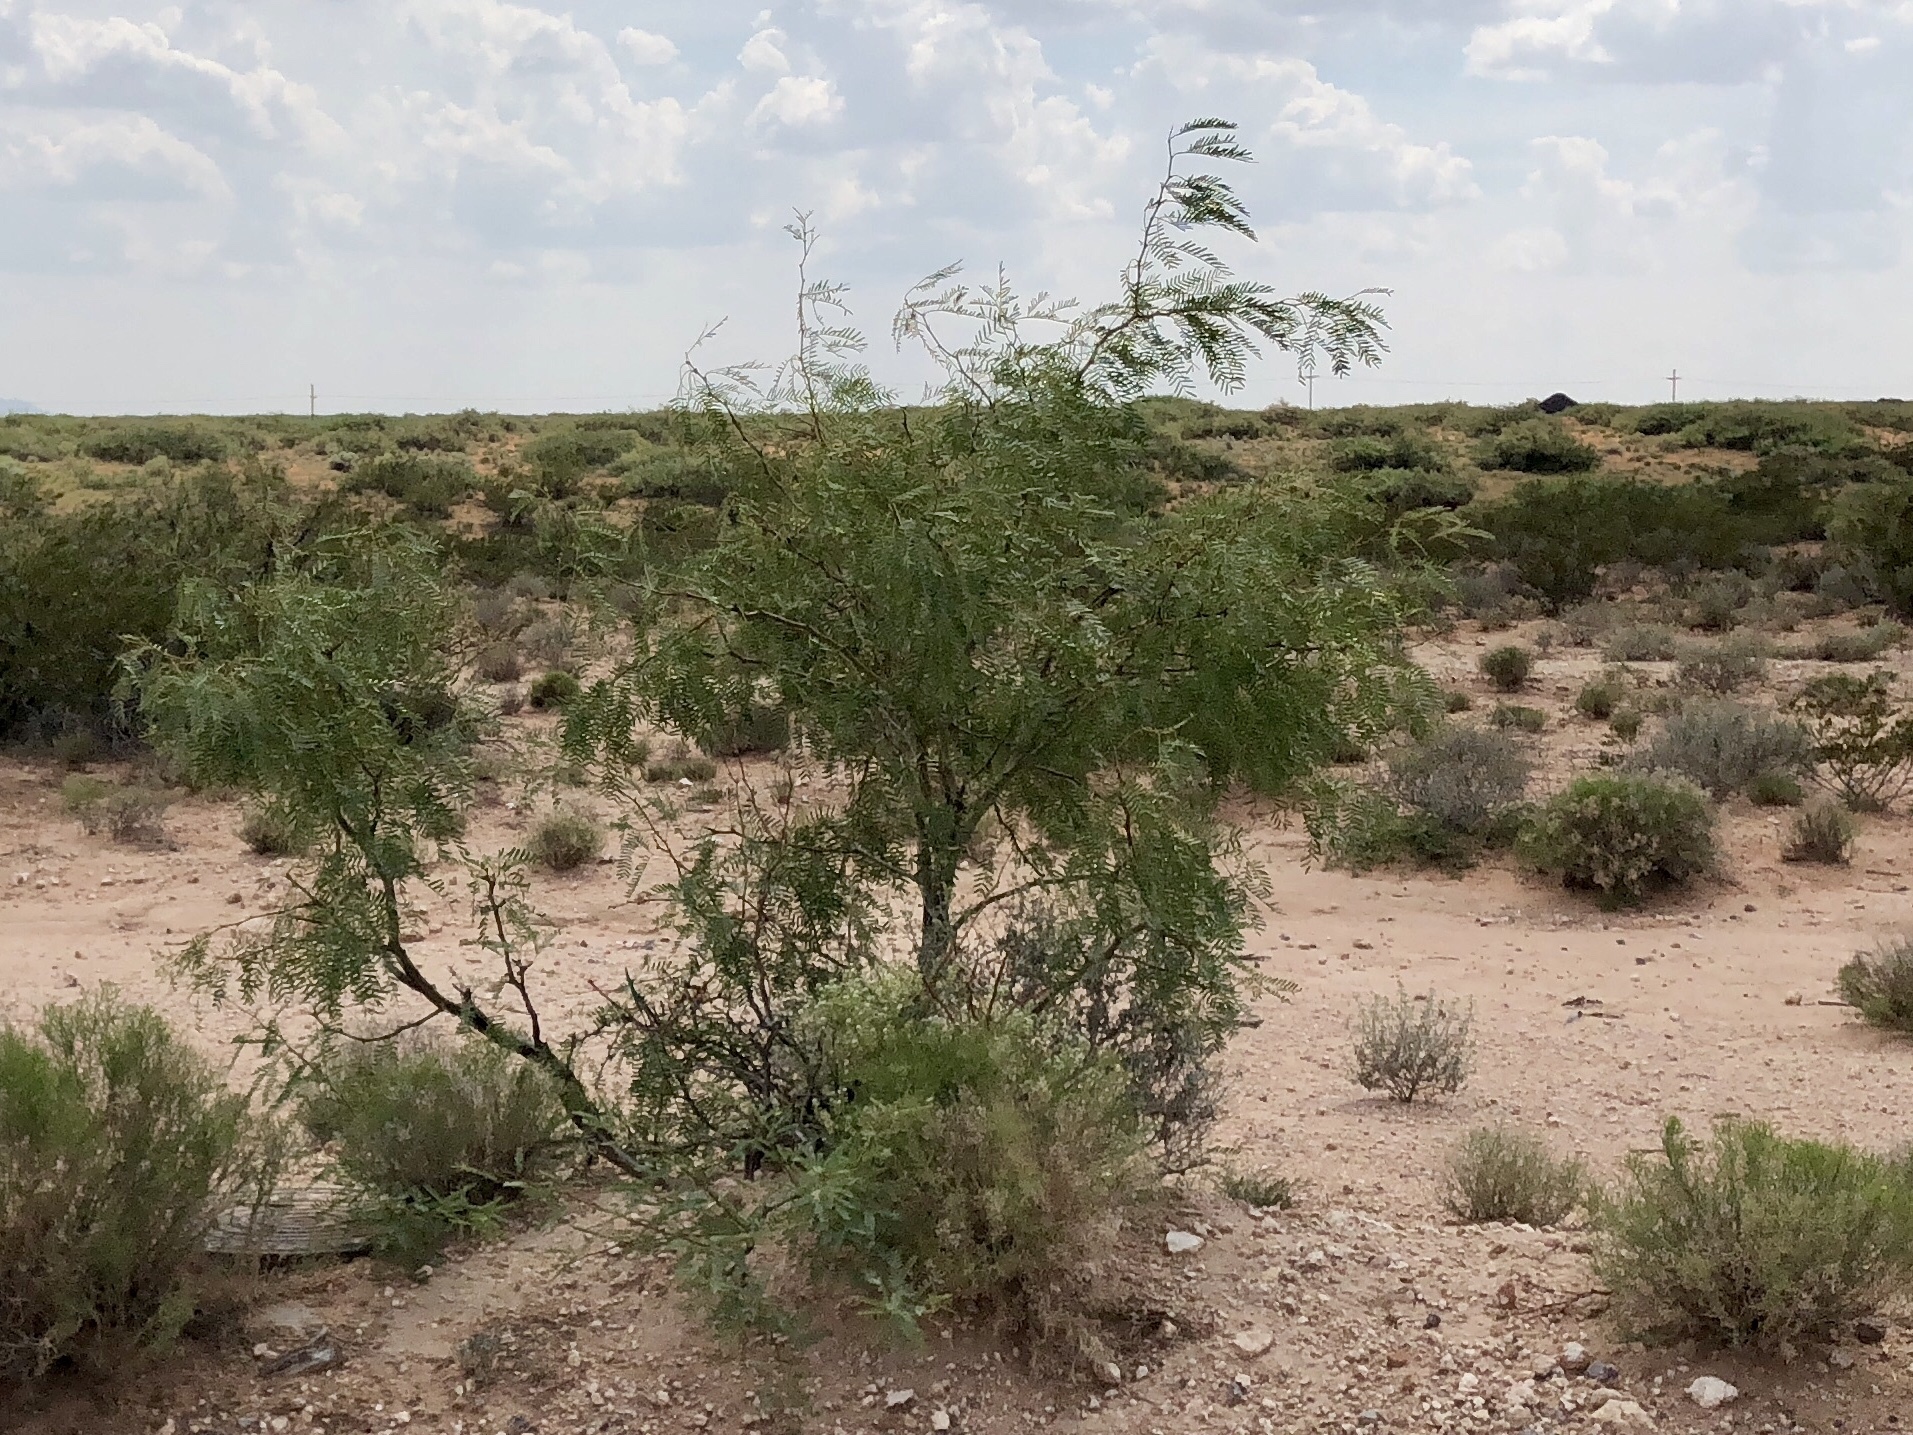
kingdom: Plantae
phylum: Tracheophyta
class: Magnoliopsida
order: Fabales
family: Fabaceae
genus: Prosopis
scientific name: Prosopis glandulosa
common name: Honey mesquite
